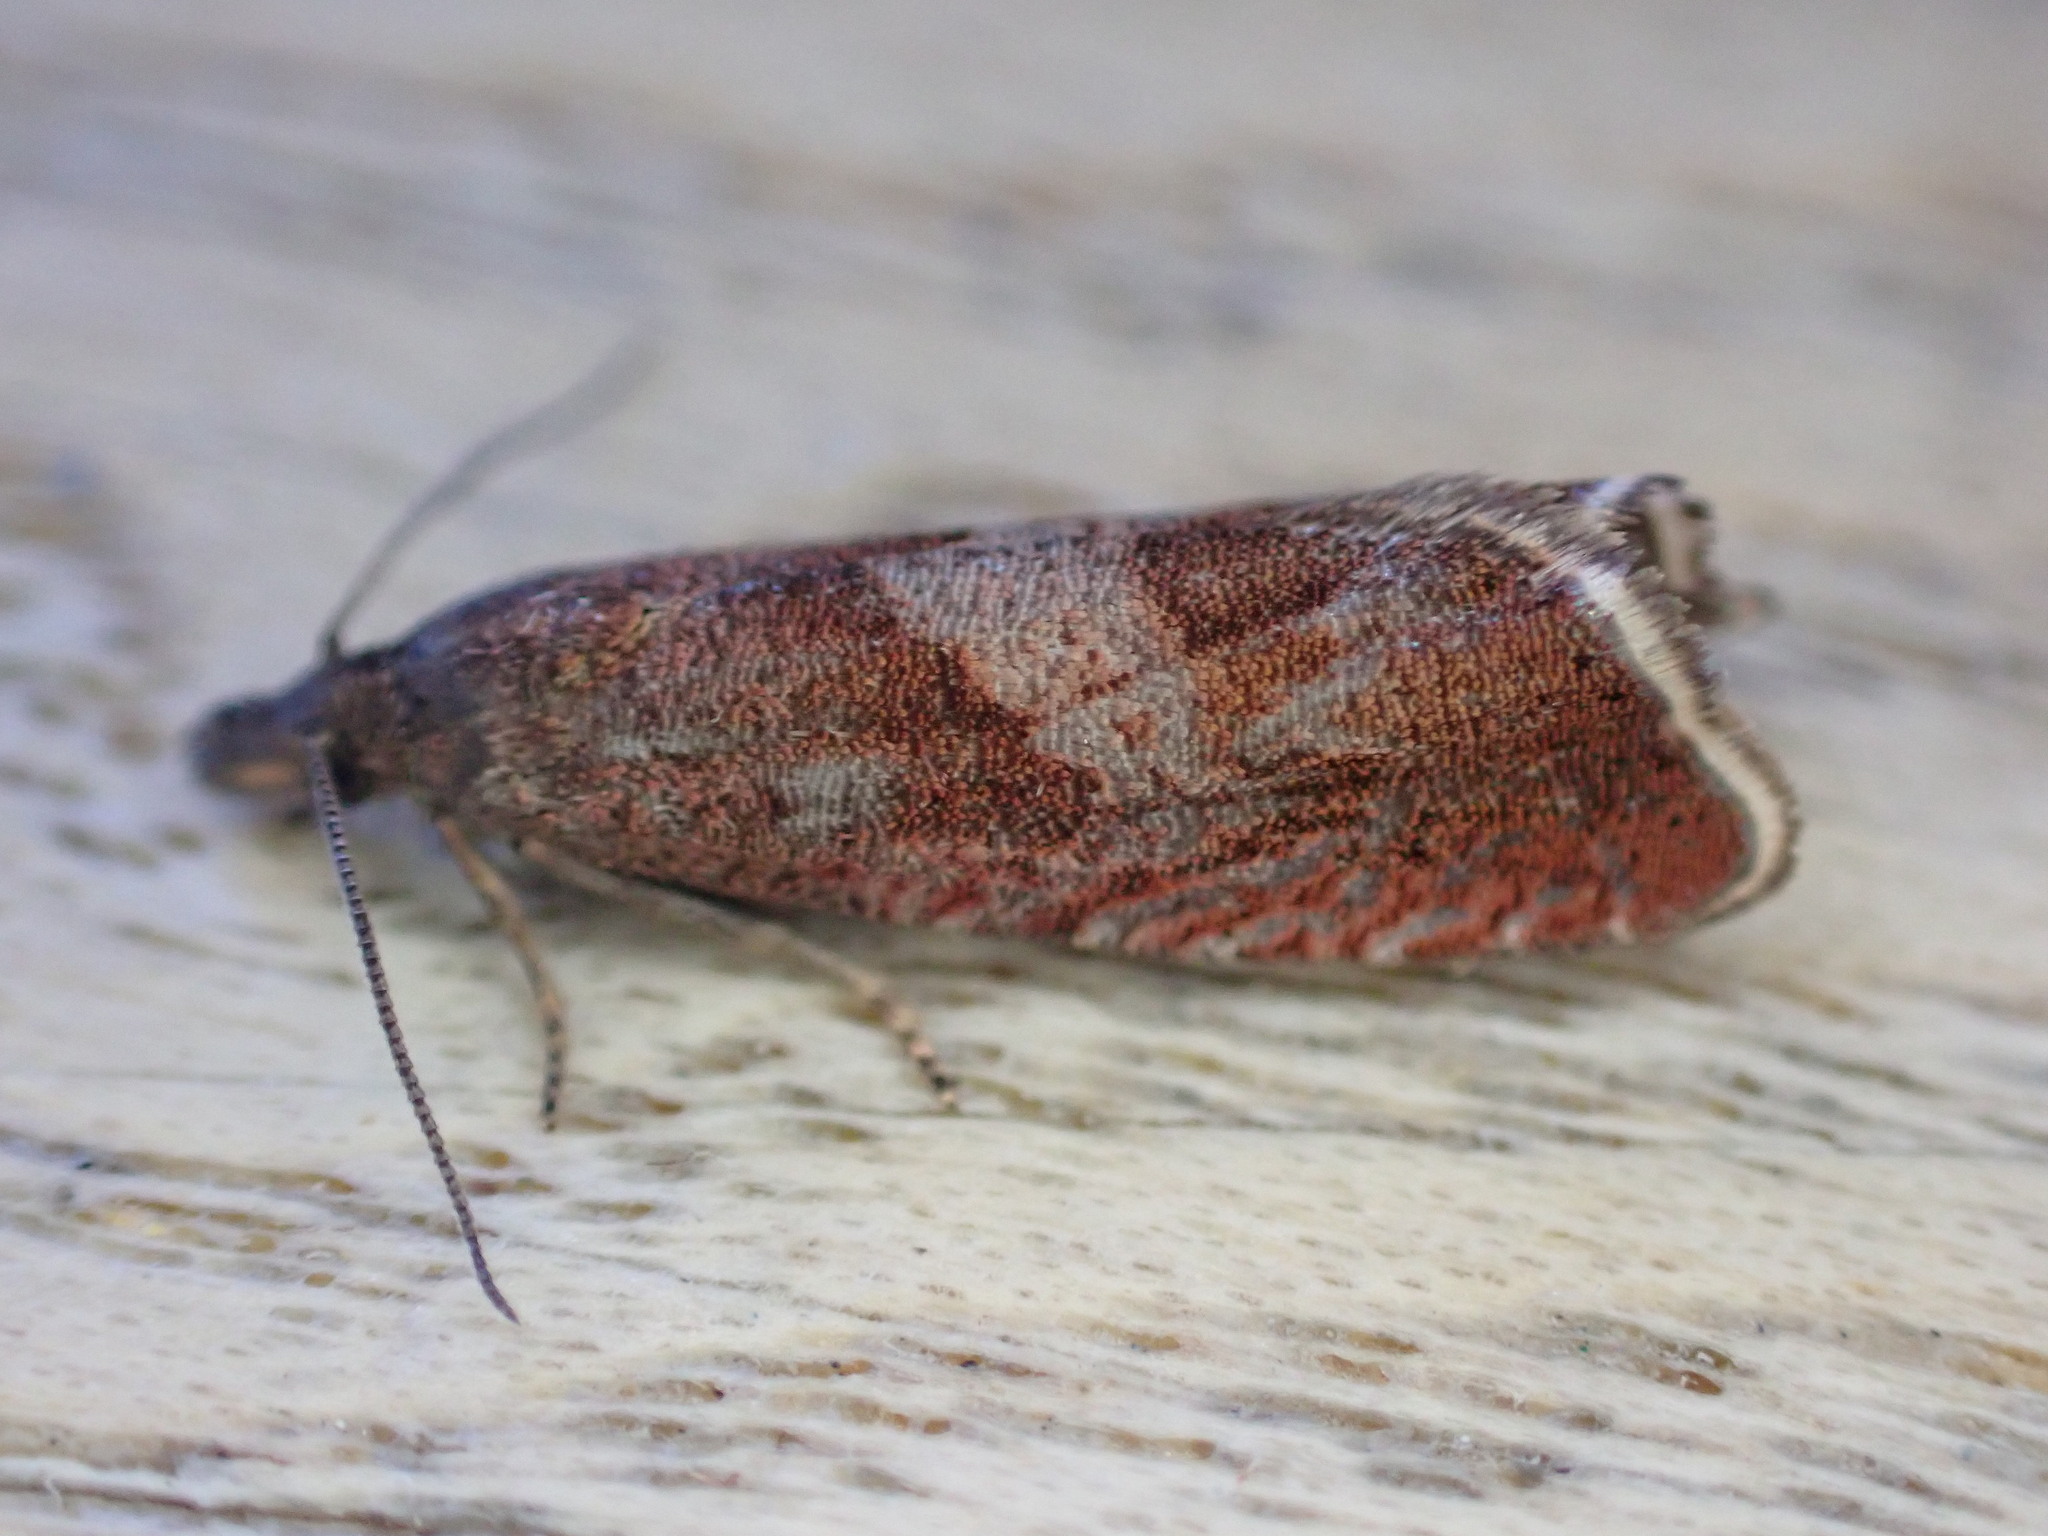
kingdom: Animalia
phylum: Arthropoda
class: Insecta
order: Lepidoptera
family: Tortricidae
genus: Dichrorampha
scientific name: Dichrorampha acuminatana
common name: Sharp-winged drill
